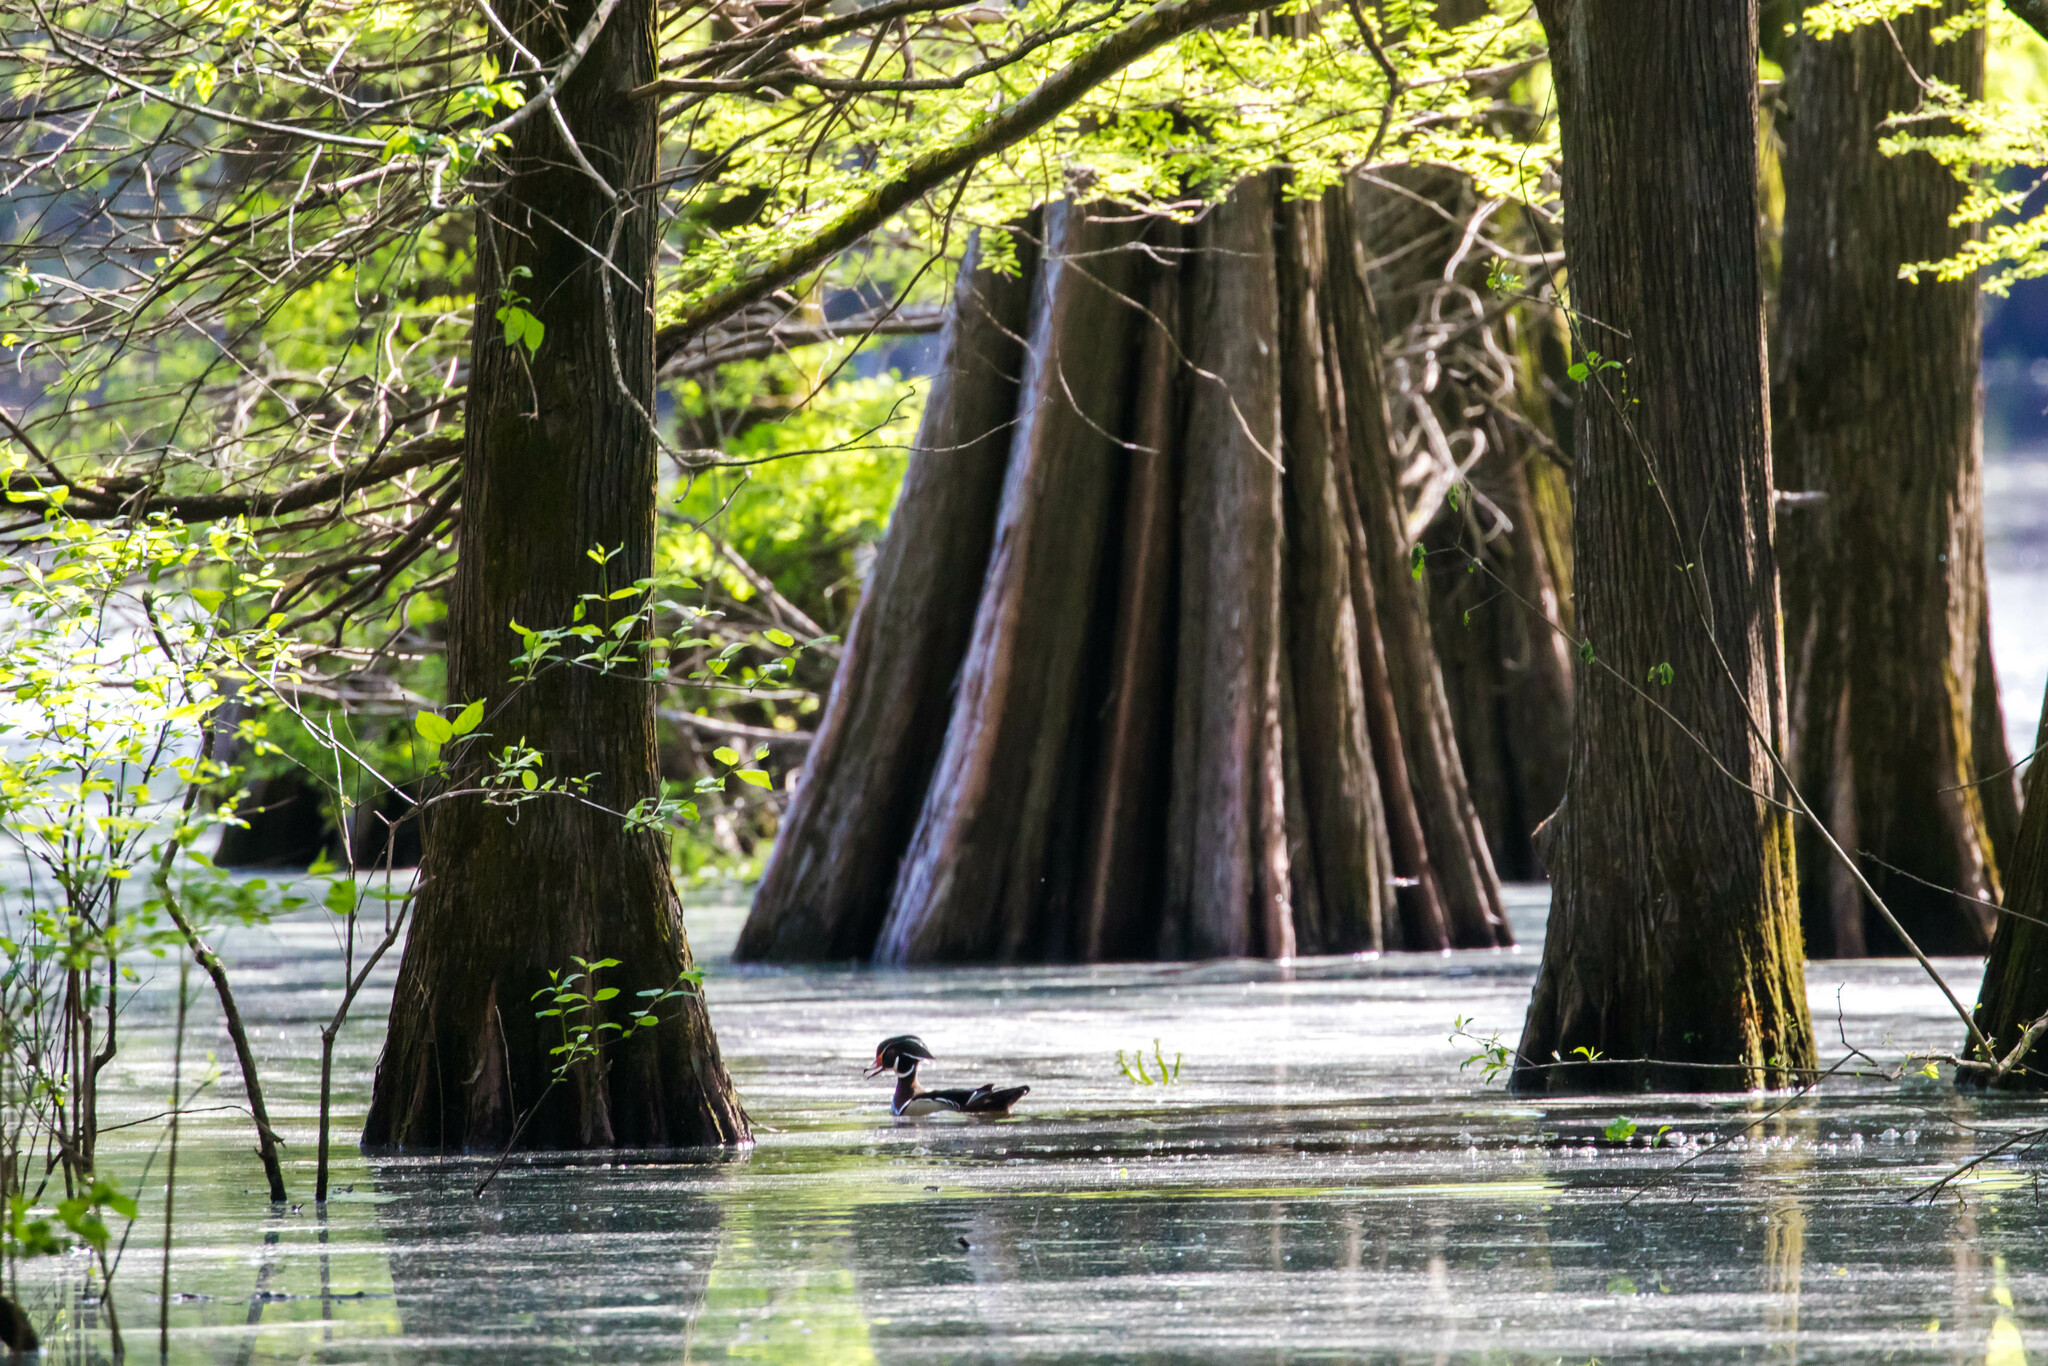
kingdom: Animalia
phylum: Chordata
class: Aves
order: Anseriformes
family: Anatidae
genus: Aix
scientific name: Aix sponsa
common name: Wood duck
